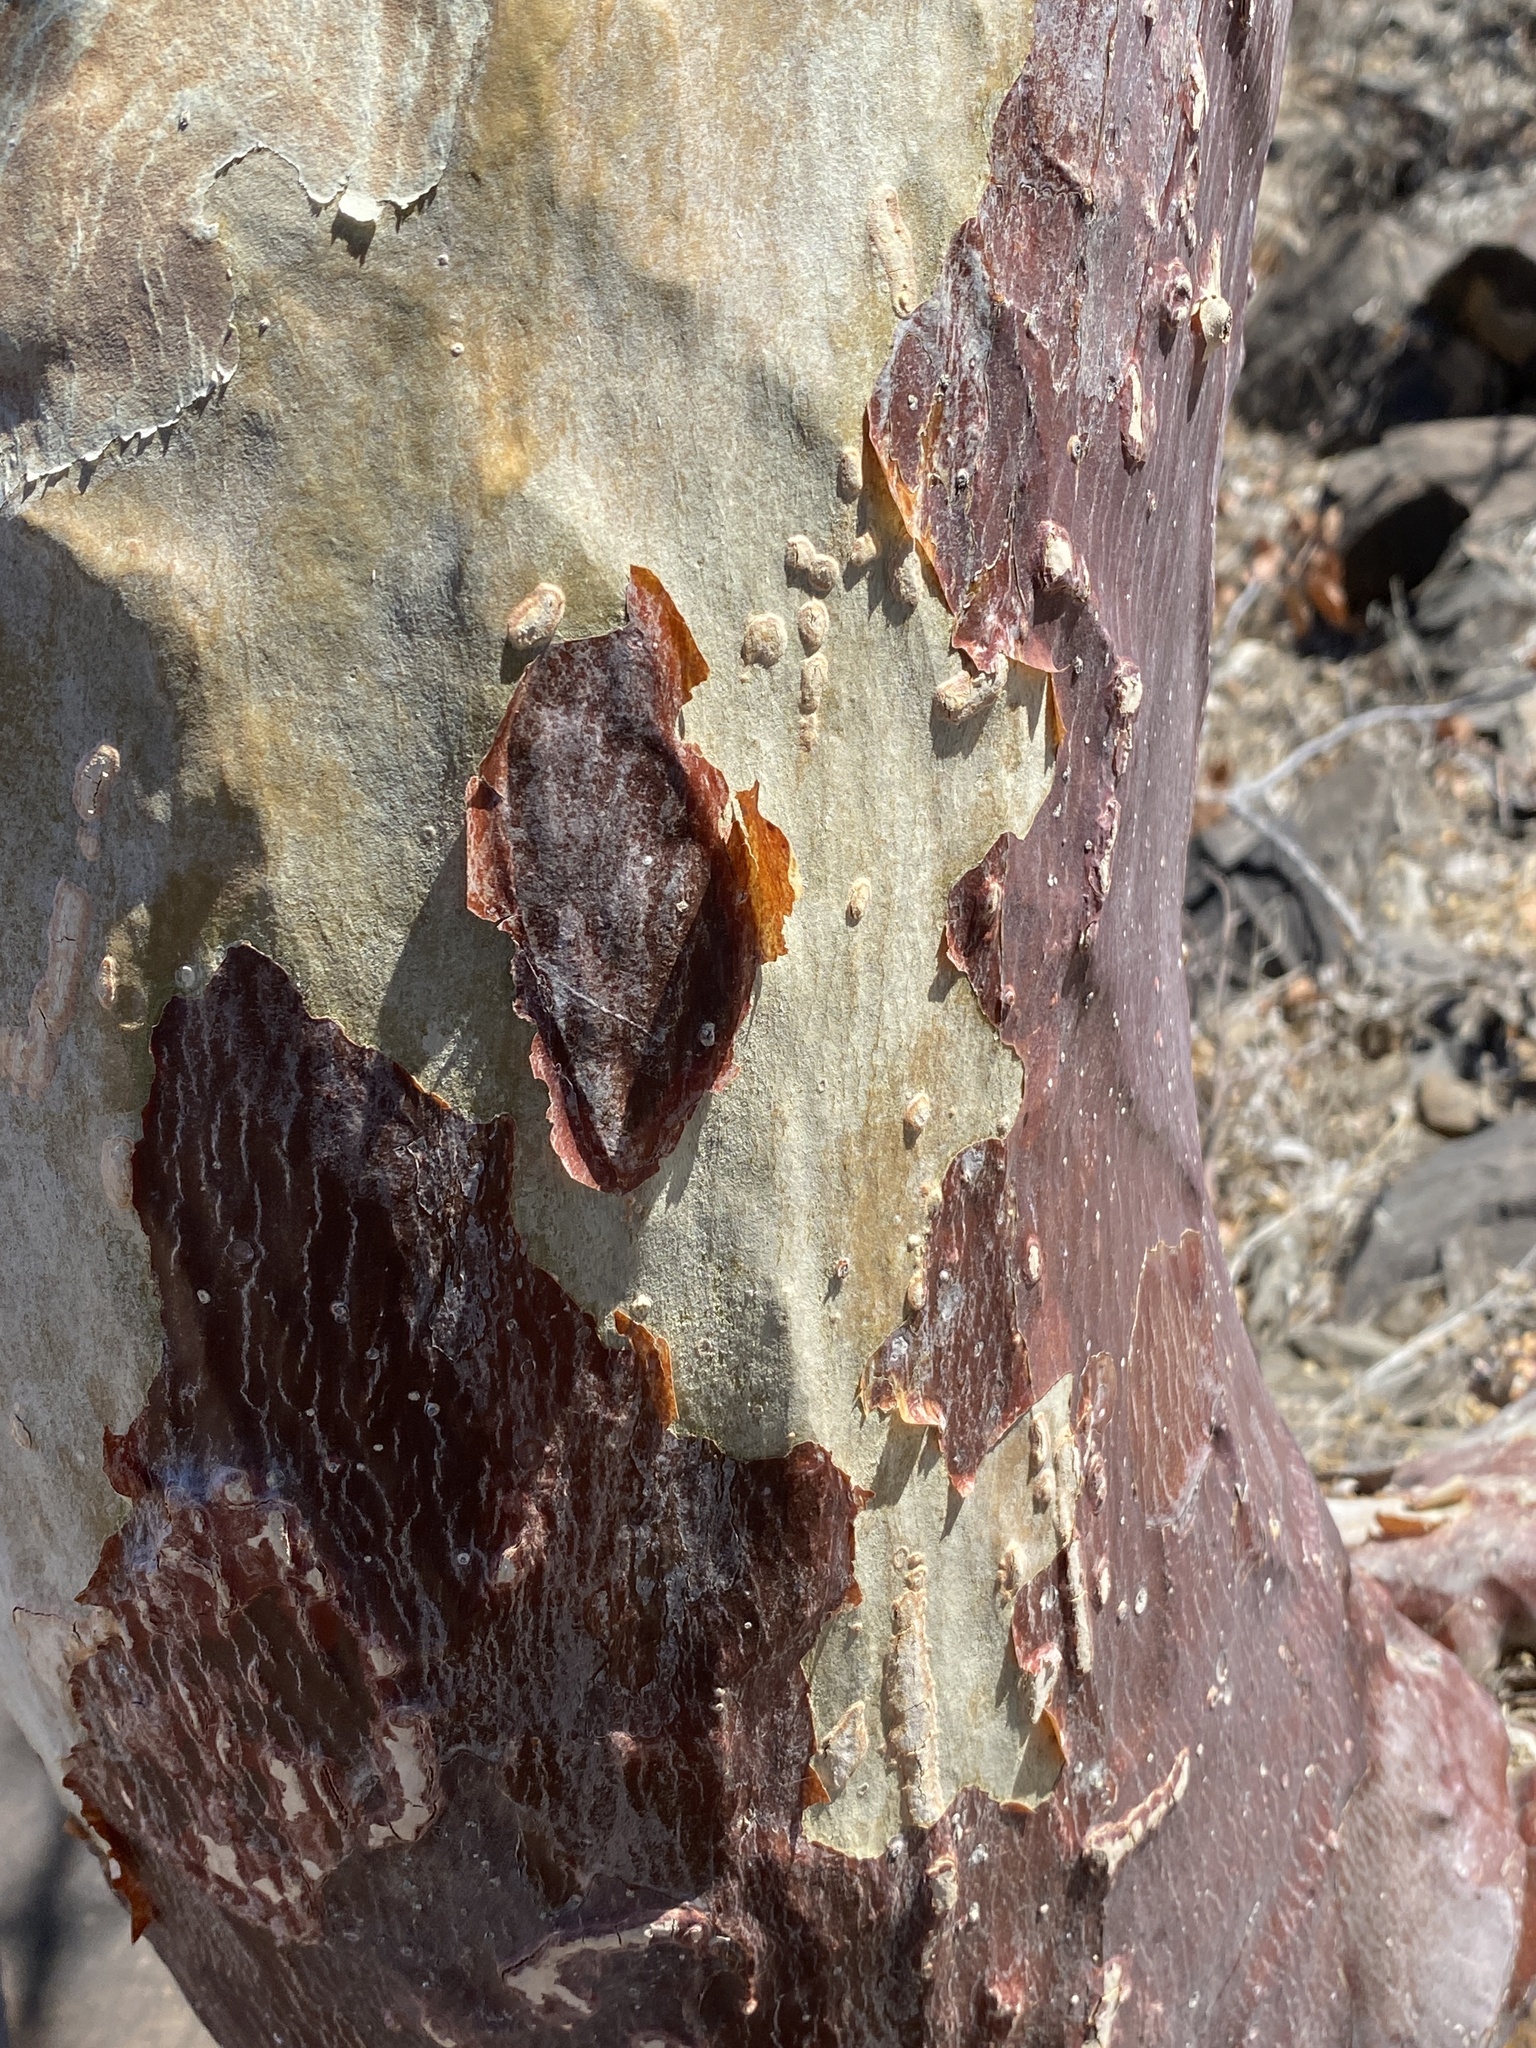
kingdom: Plantae
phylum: Tracheophyta
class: Magnoliopsida
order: Malvales
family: Malvaceae
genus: Sterculia
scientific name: Sterculia africana
